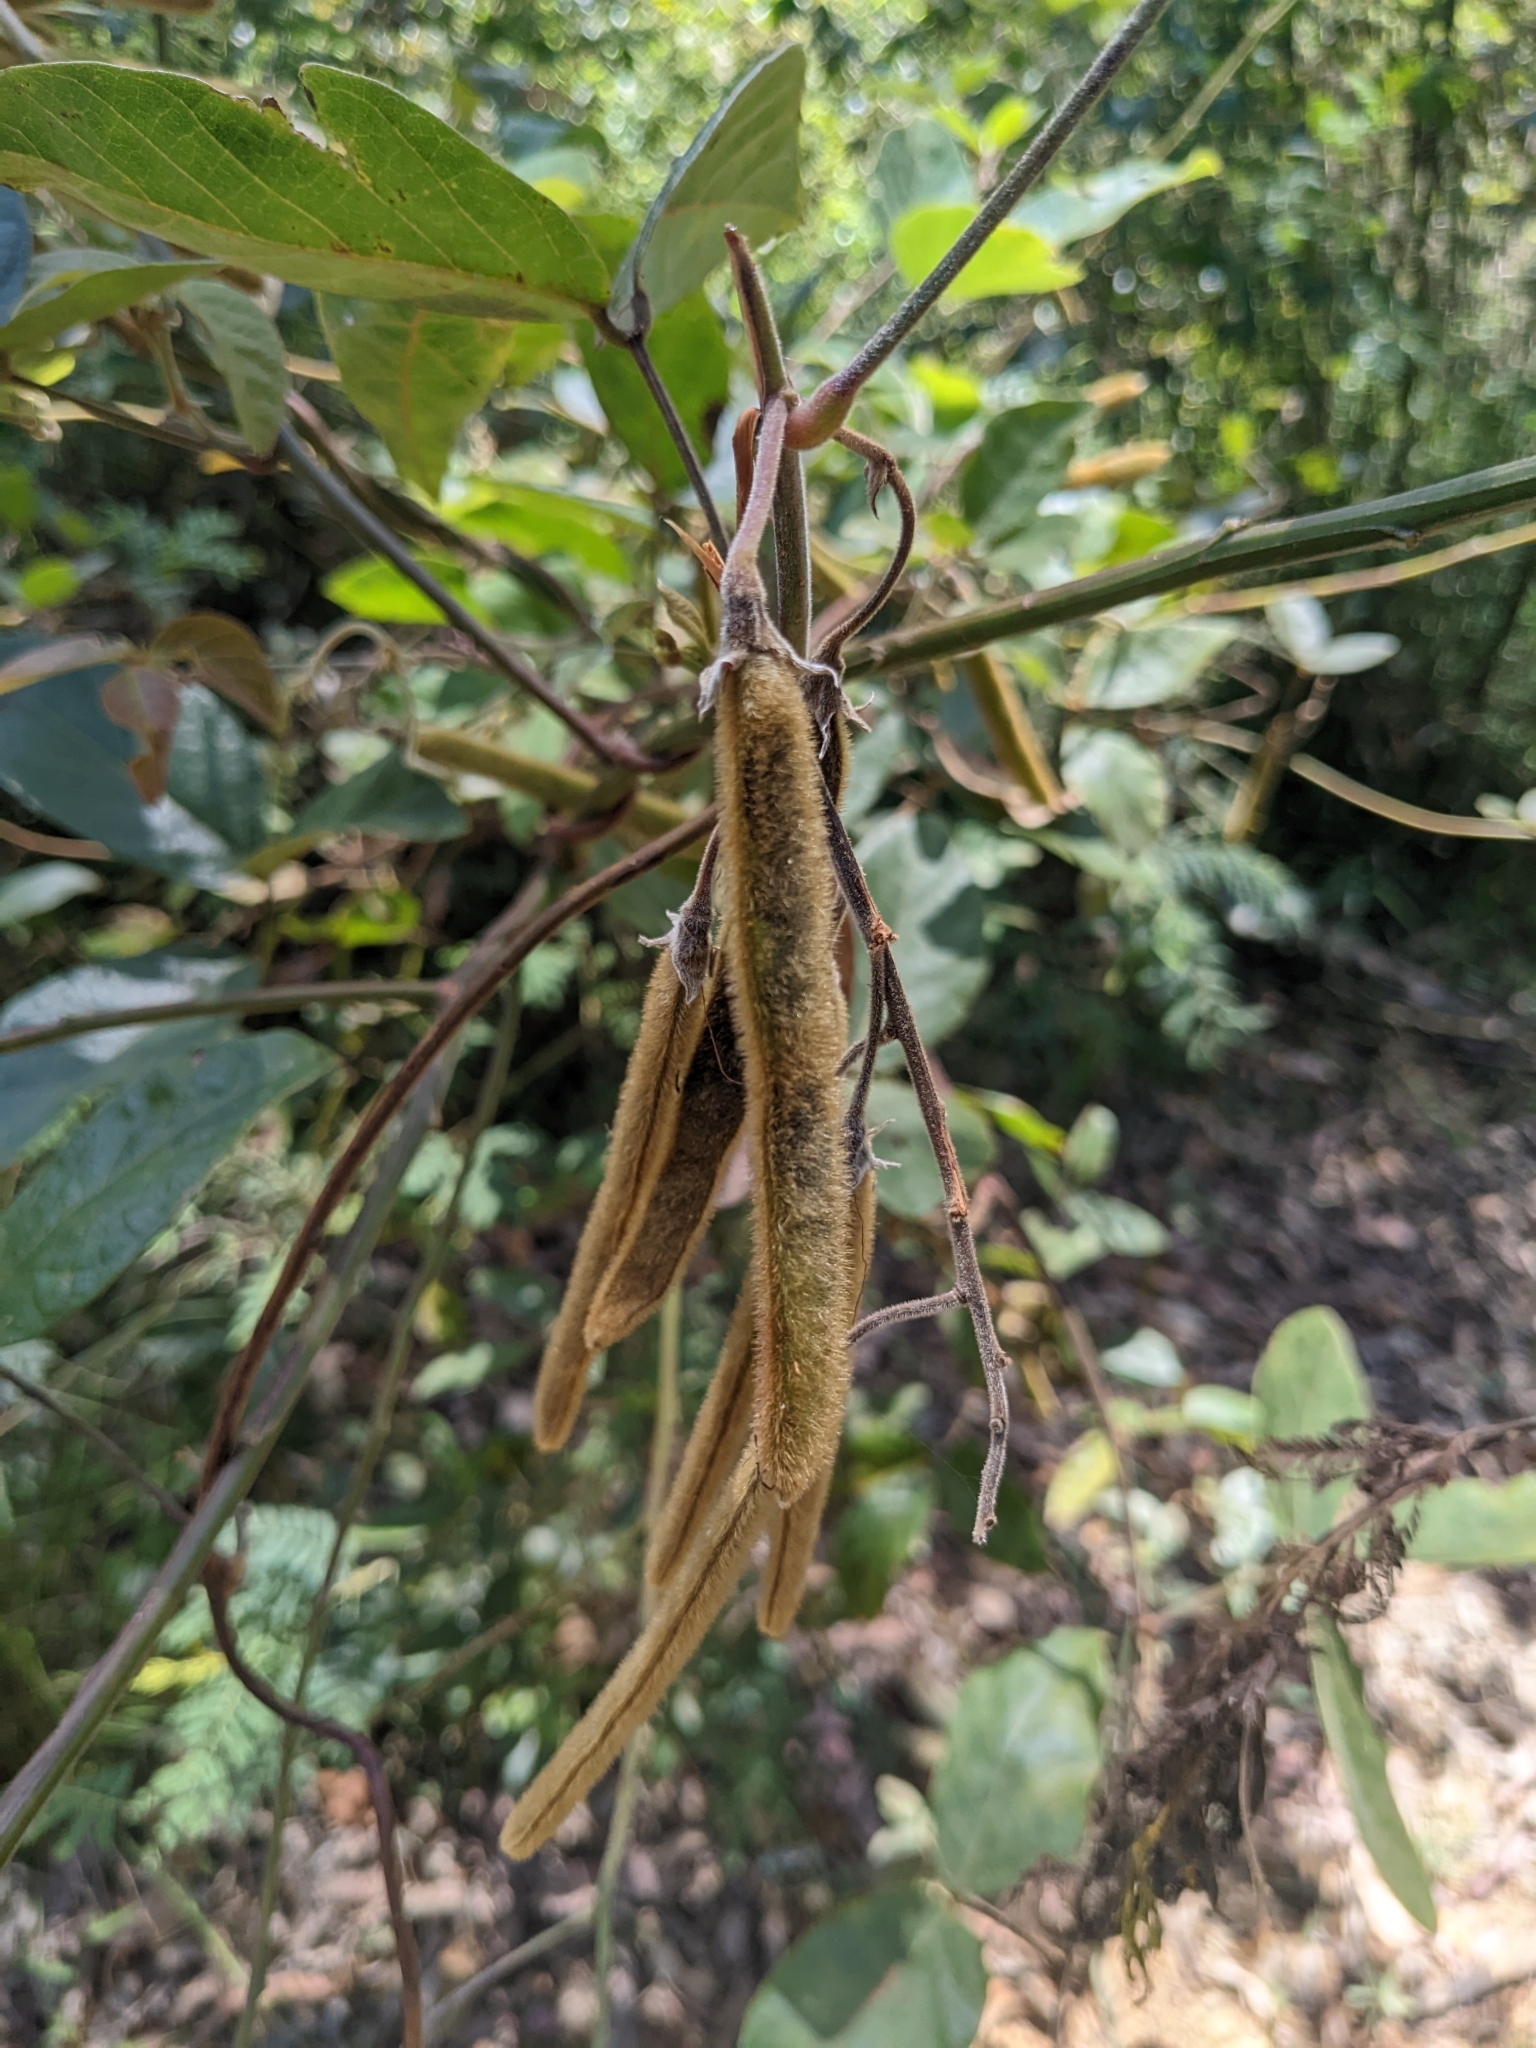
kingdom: Plantae
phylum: Tracheophyta
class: Magnoliopsida
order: Fabales
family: Fabaceae
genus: Kennedia
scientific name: Kennedia rubicunda
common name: Red kennedy-pea
